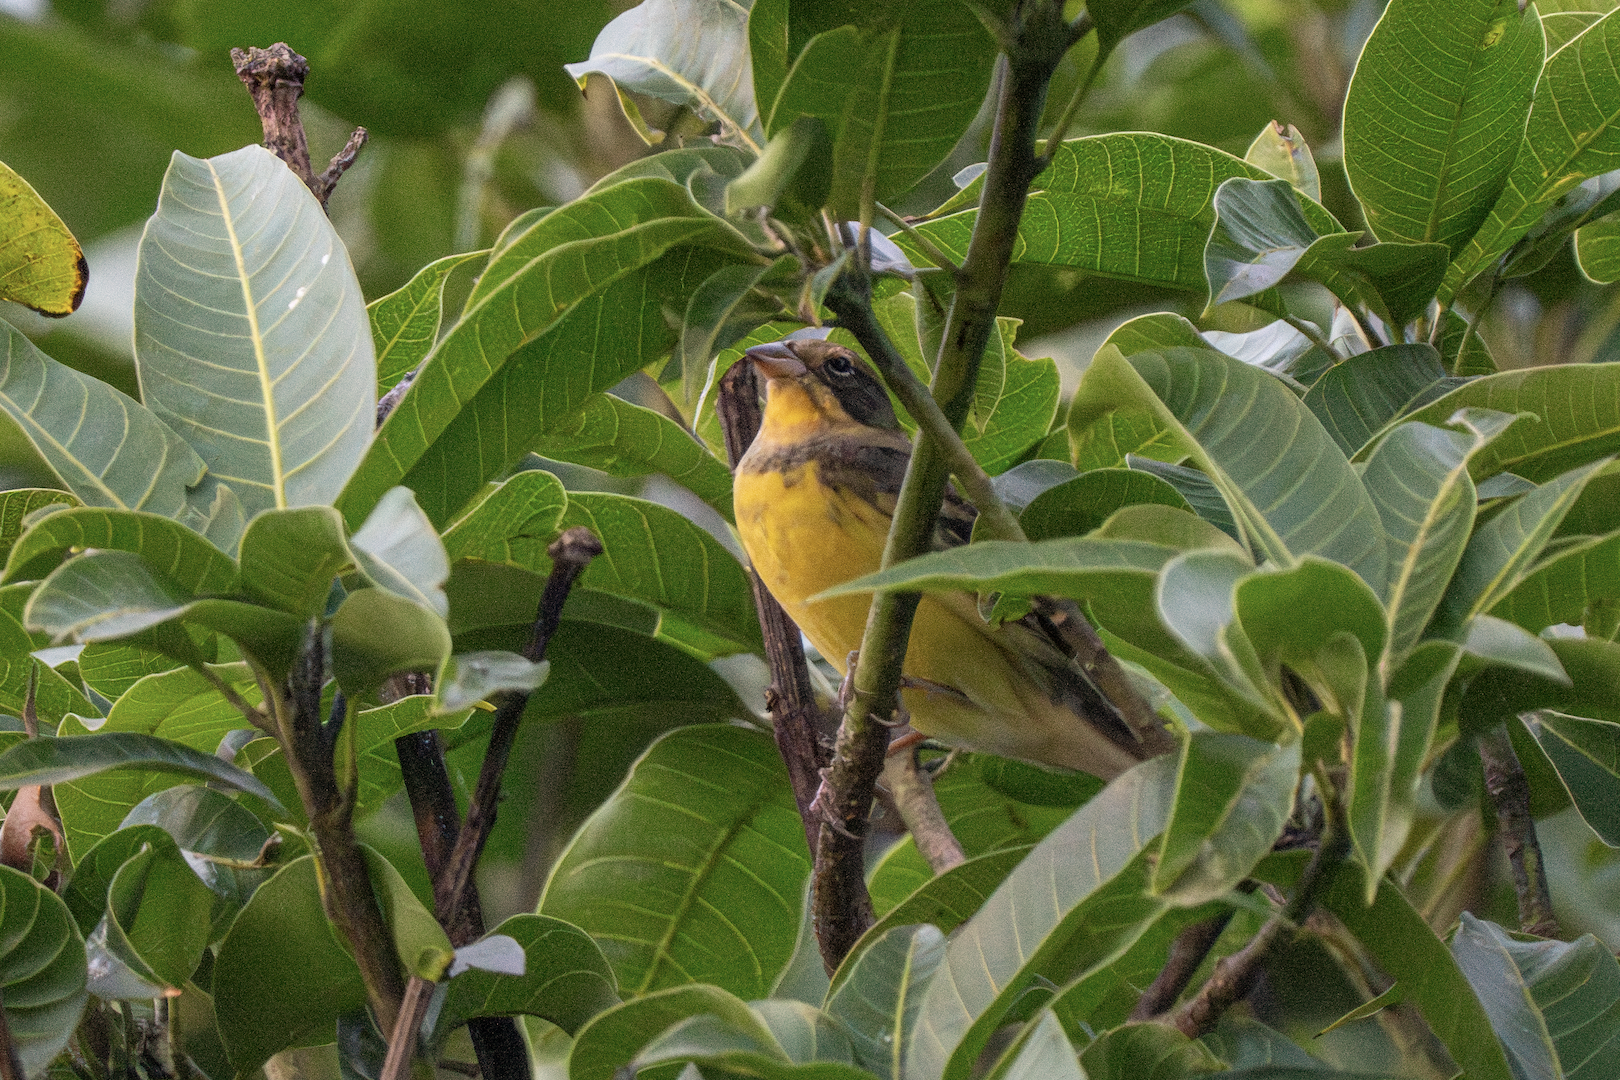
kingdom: Animalia
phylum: Chordata
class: Aves
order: Passeriformes
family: Emberizidae
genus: Emberiza
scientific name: Emberiza aureola
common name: Yellow-breasted bunting
